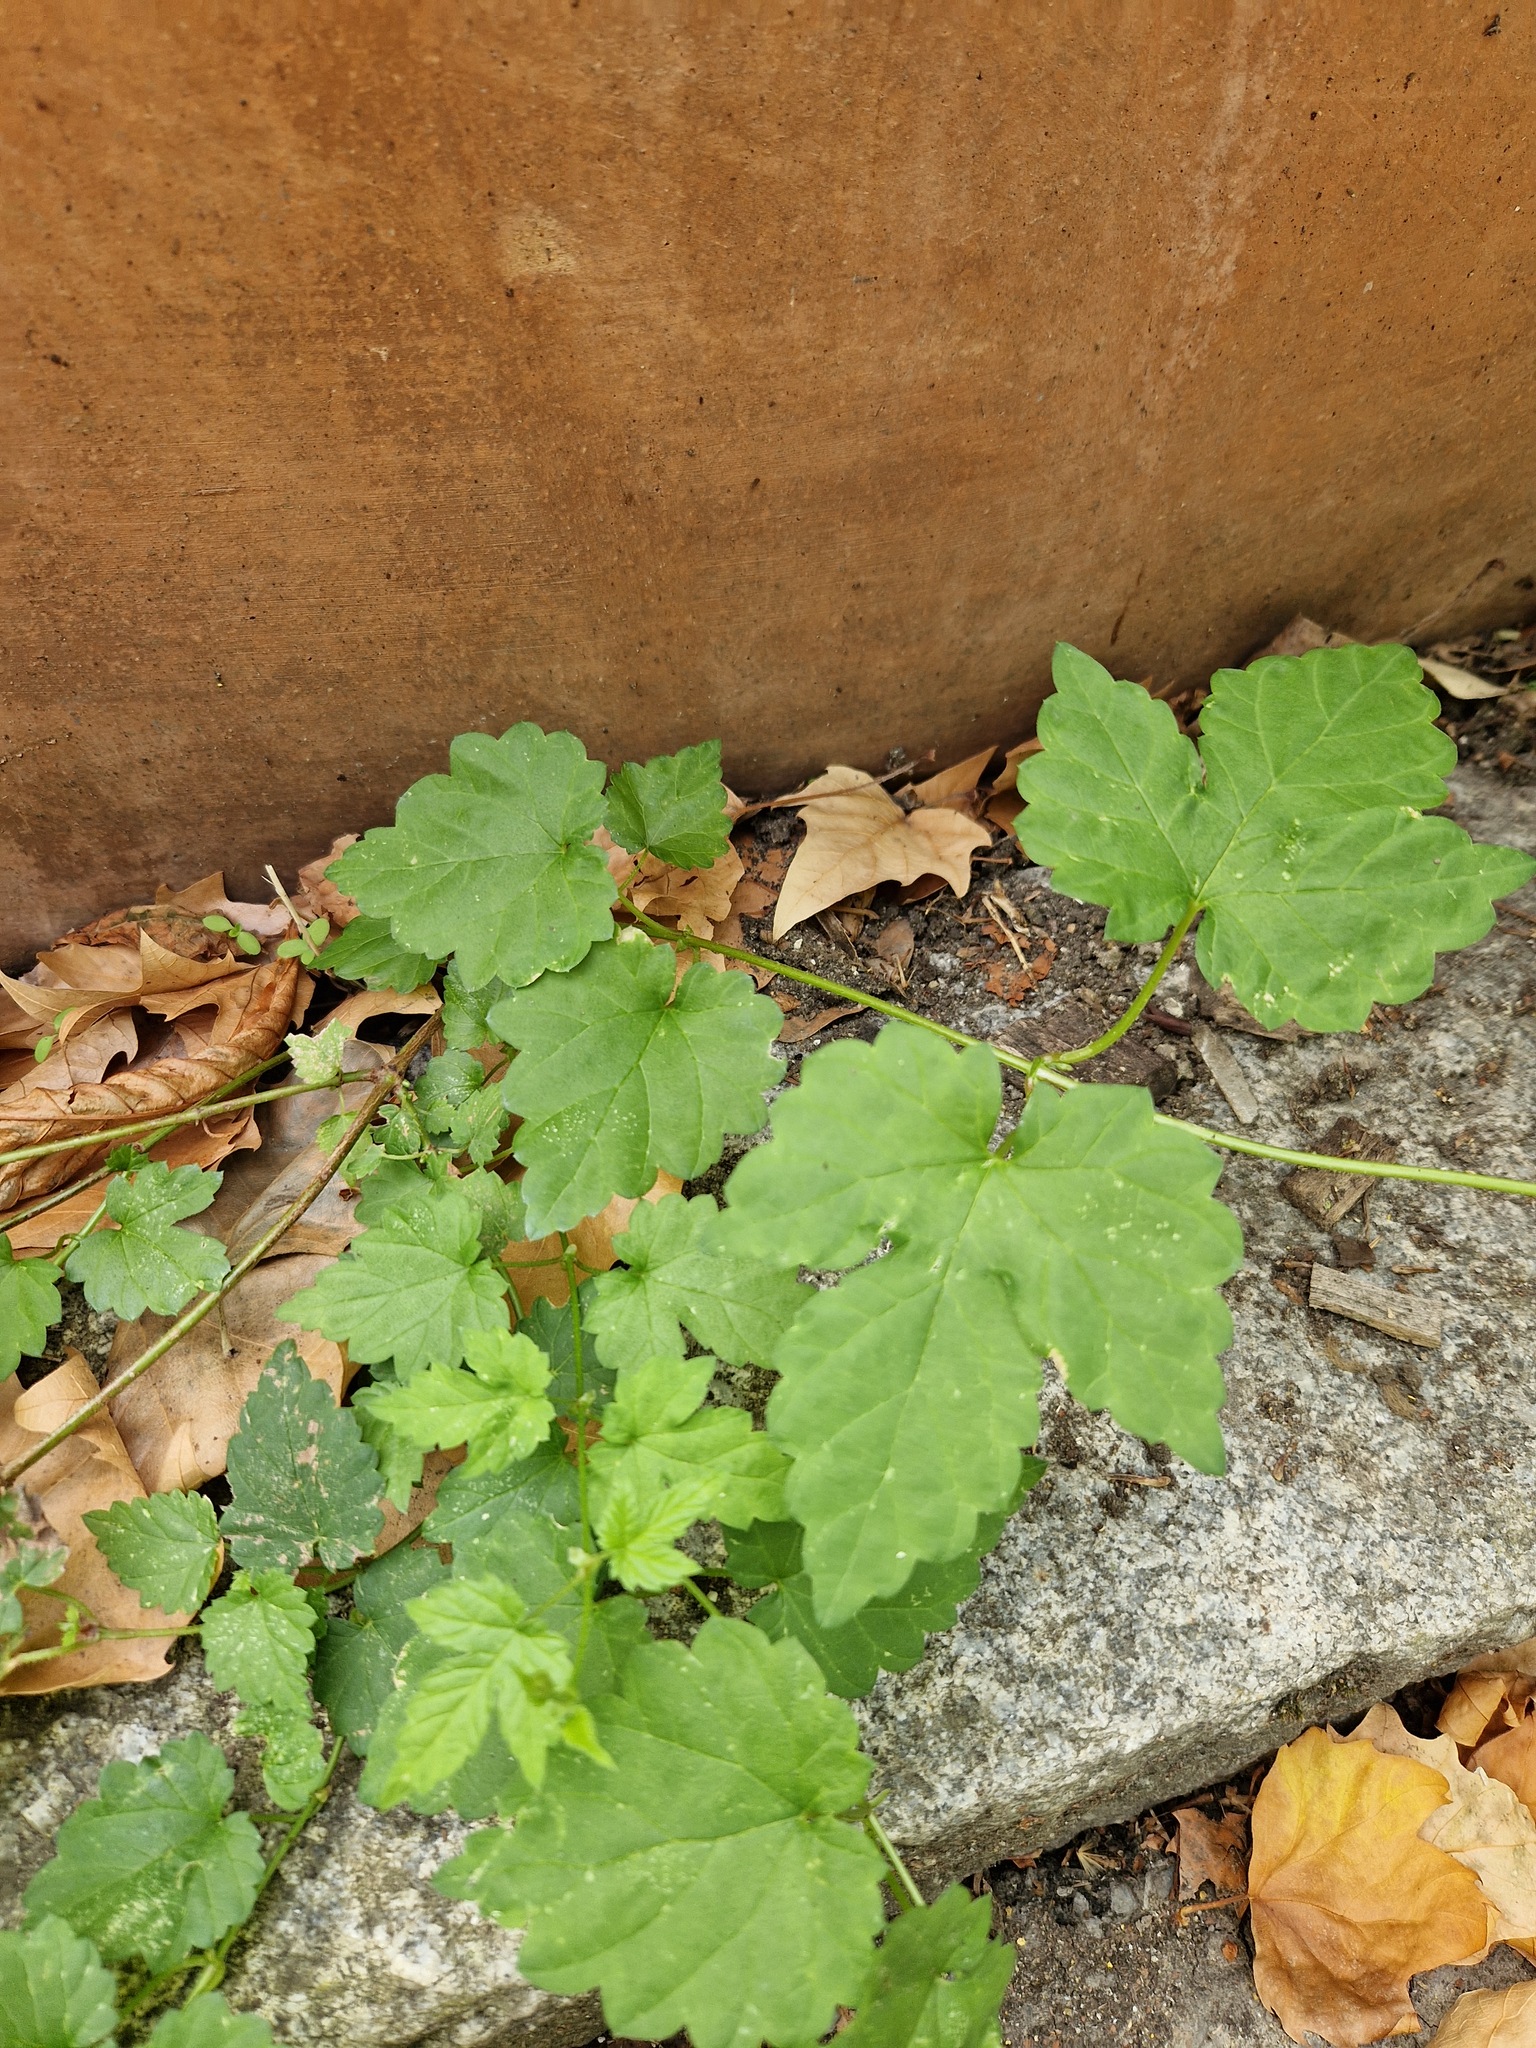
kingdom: Plantae
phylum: Tracheophyta
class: Magnoliopsida
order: Rosales
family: Cannabaceae
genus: Humulus
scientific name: Humulus lupulus
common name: Hop
